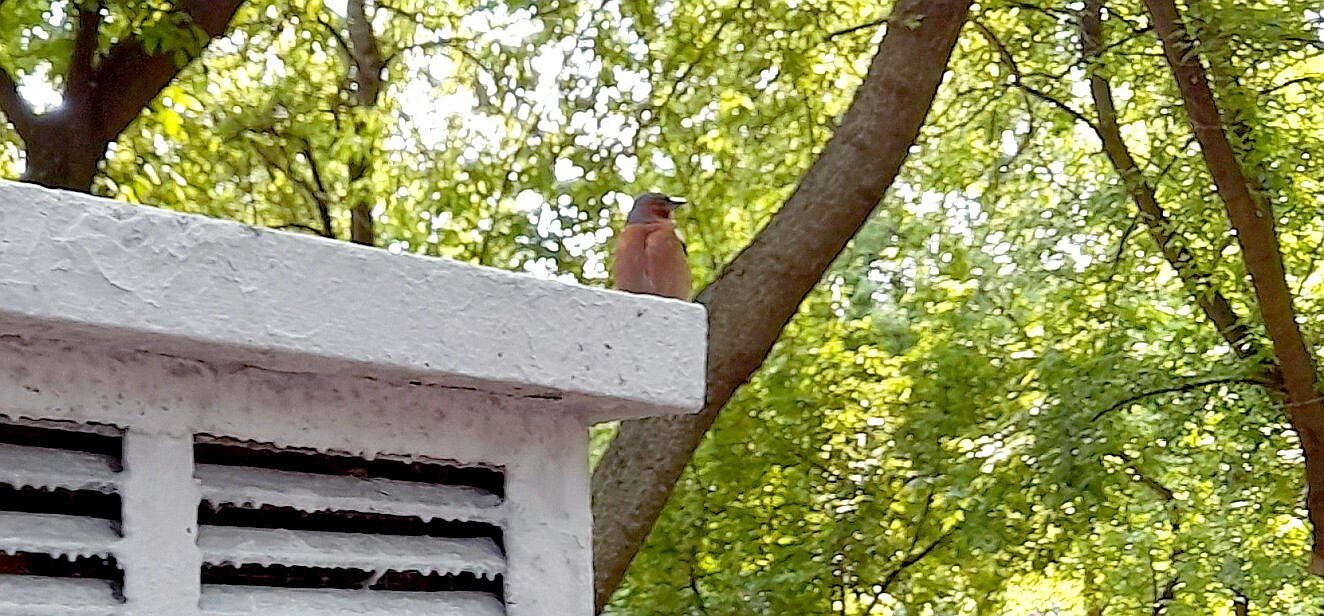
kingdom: Animalia
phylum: Chordata
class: Aves
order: Passeriformes
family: Fringillidae
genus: Fringilla
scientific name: Fringilla coelebs
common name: Common chaffinch
